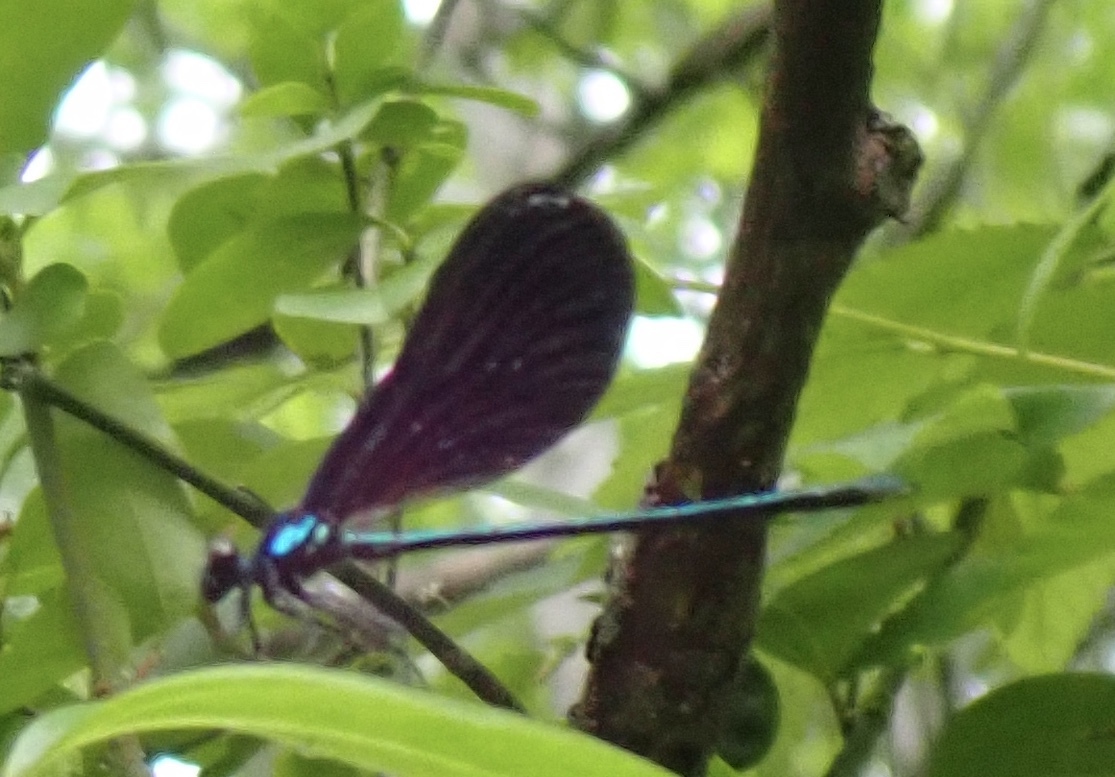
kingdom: Animalia
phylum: Arthropoda
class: Insecta
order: Odonata
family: Calopterygidae
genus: Calopteryx
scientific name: Calopteryx maculata
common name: Ebony jewelwing
